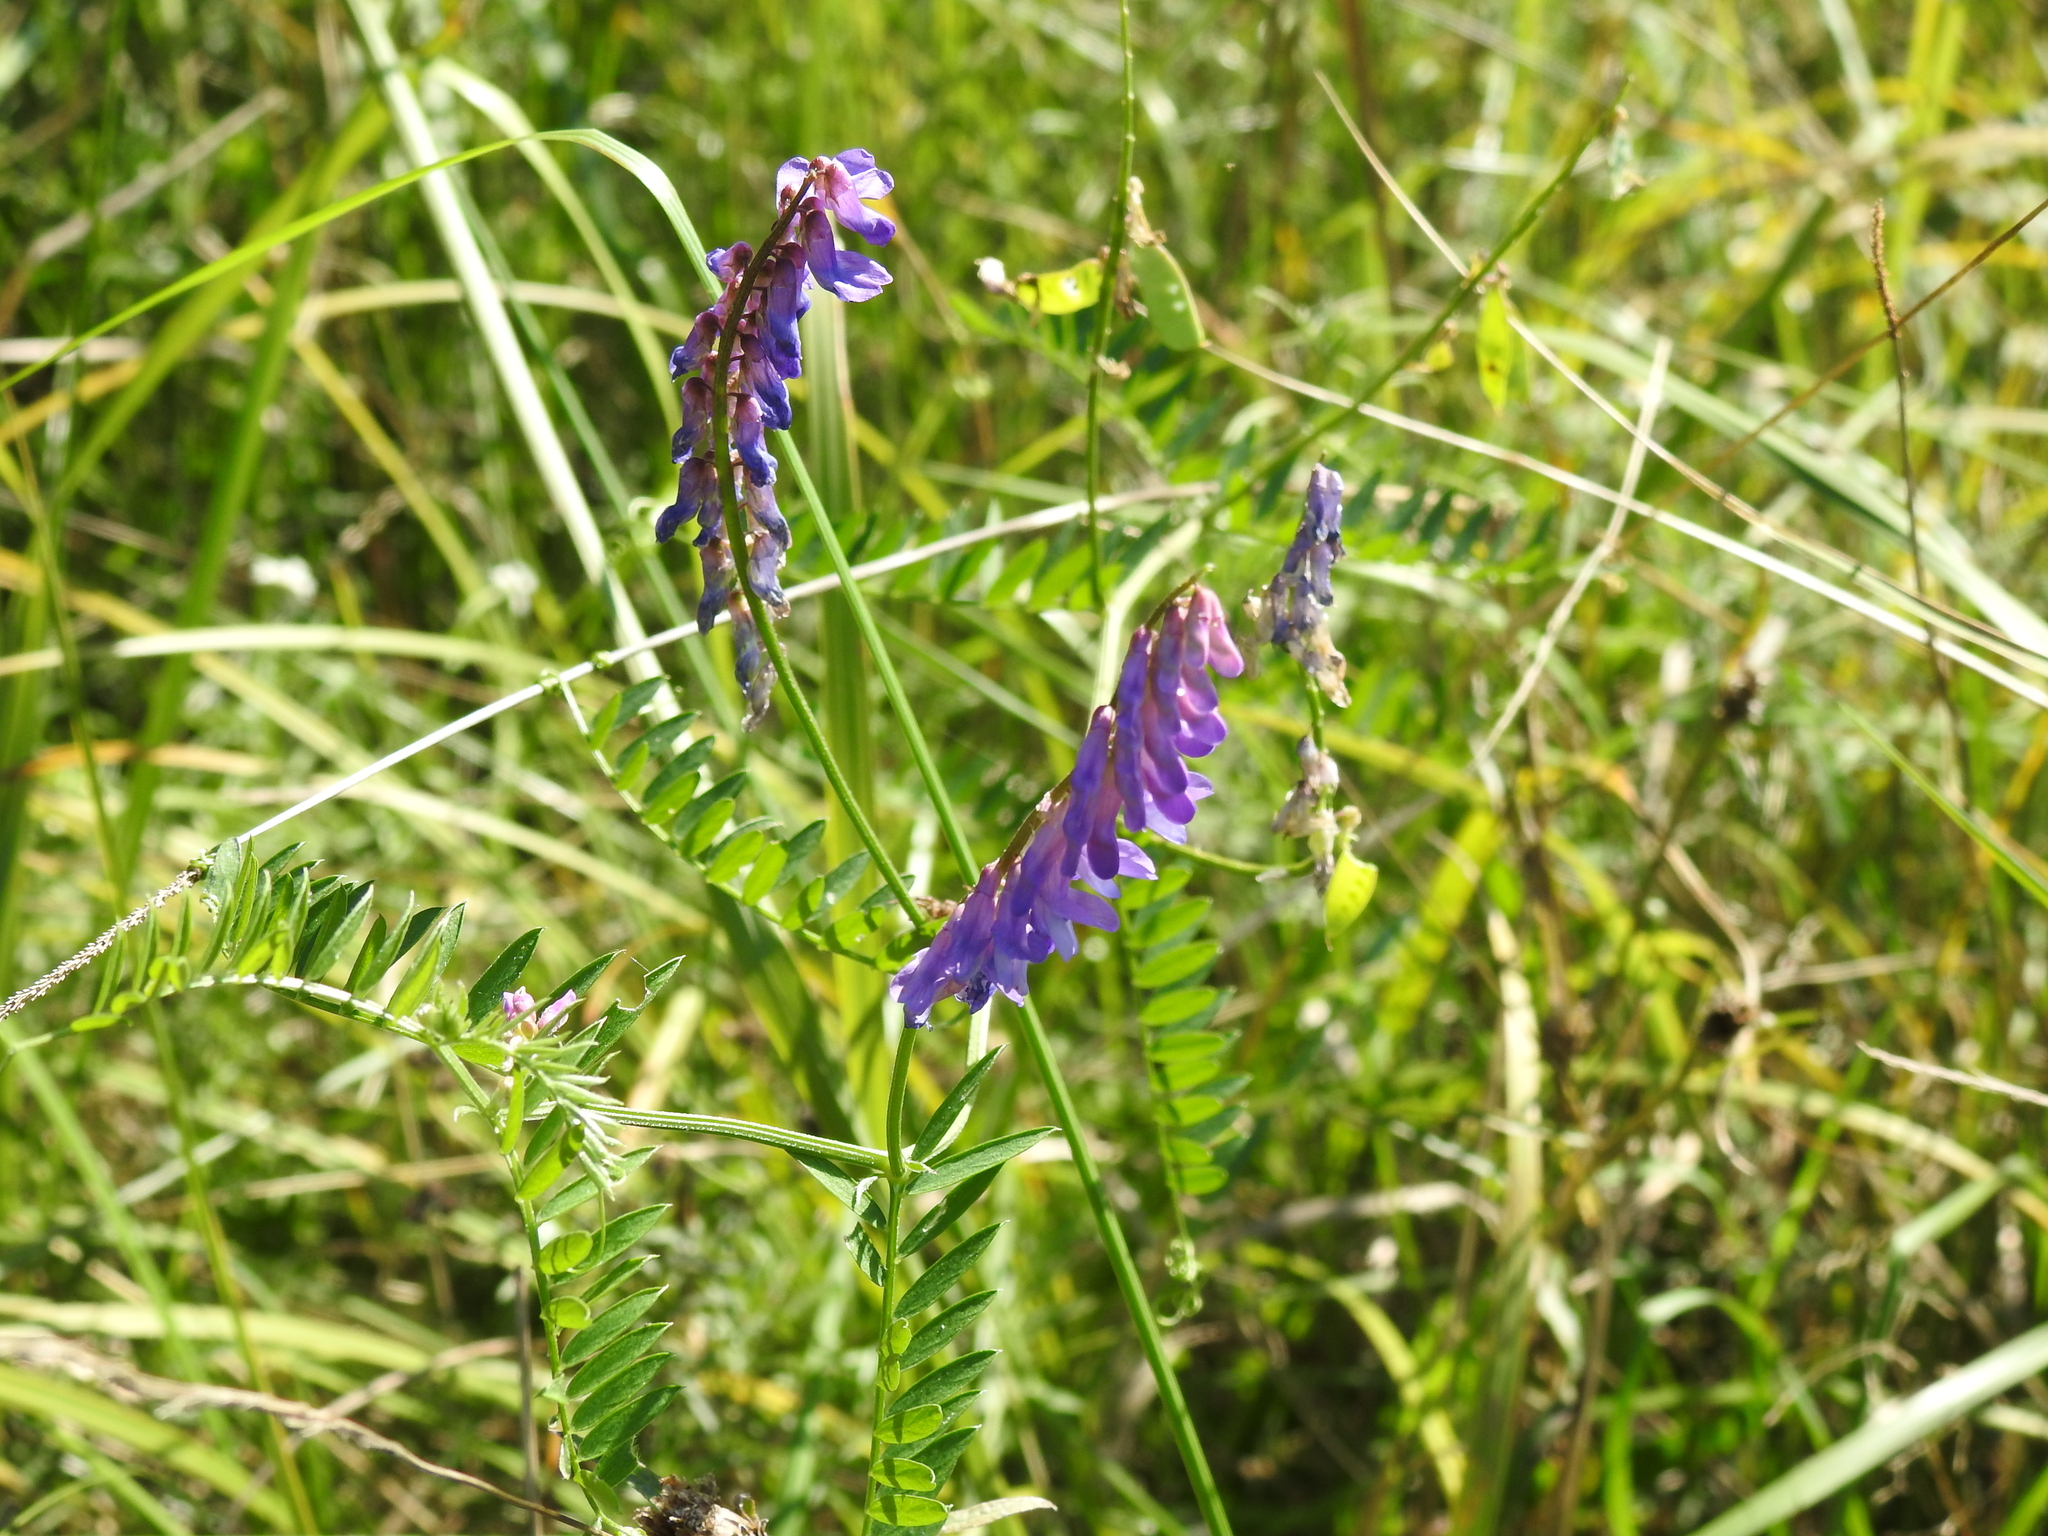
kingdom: Plantae
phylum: Tracheophyta
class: Magnoliopsida
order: Fabales
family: Fabaceae
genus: Vicia
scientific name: Vicia cracca
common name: Bird vetch
